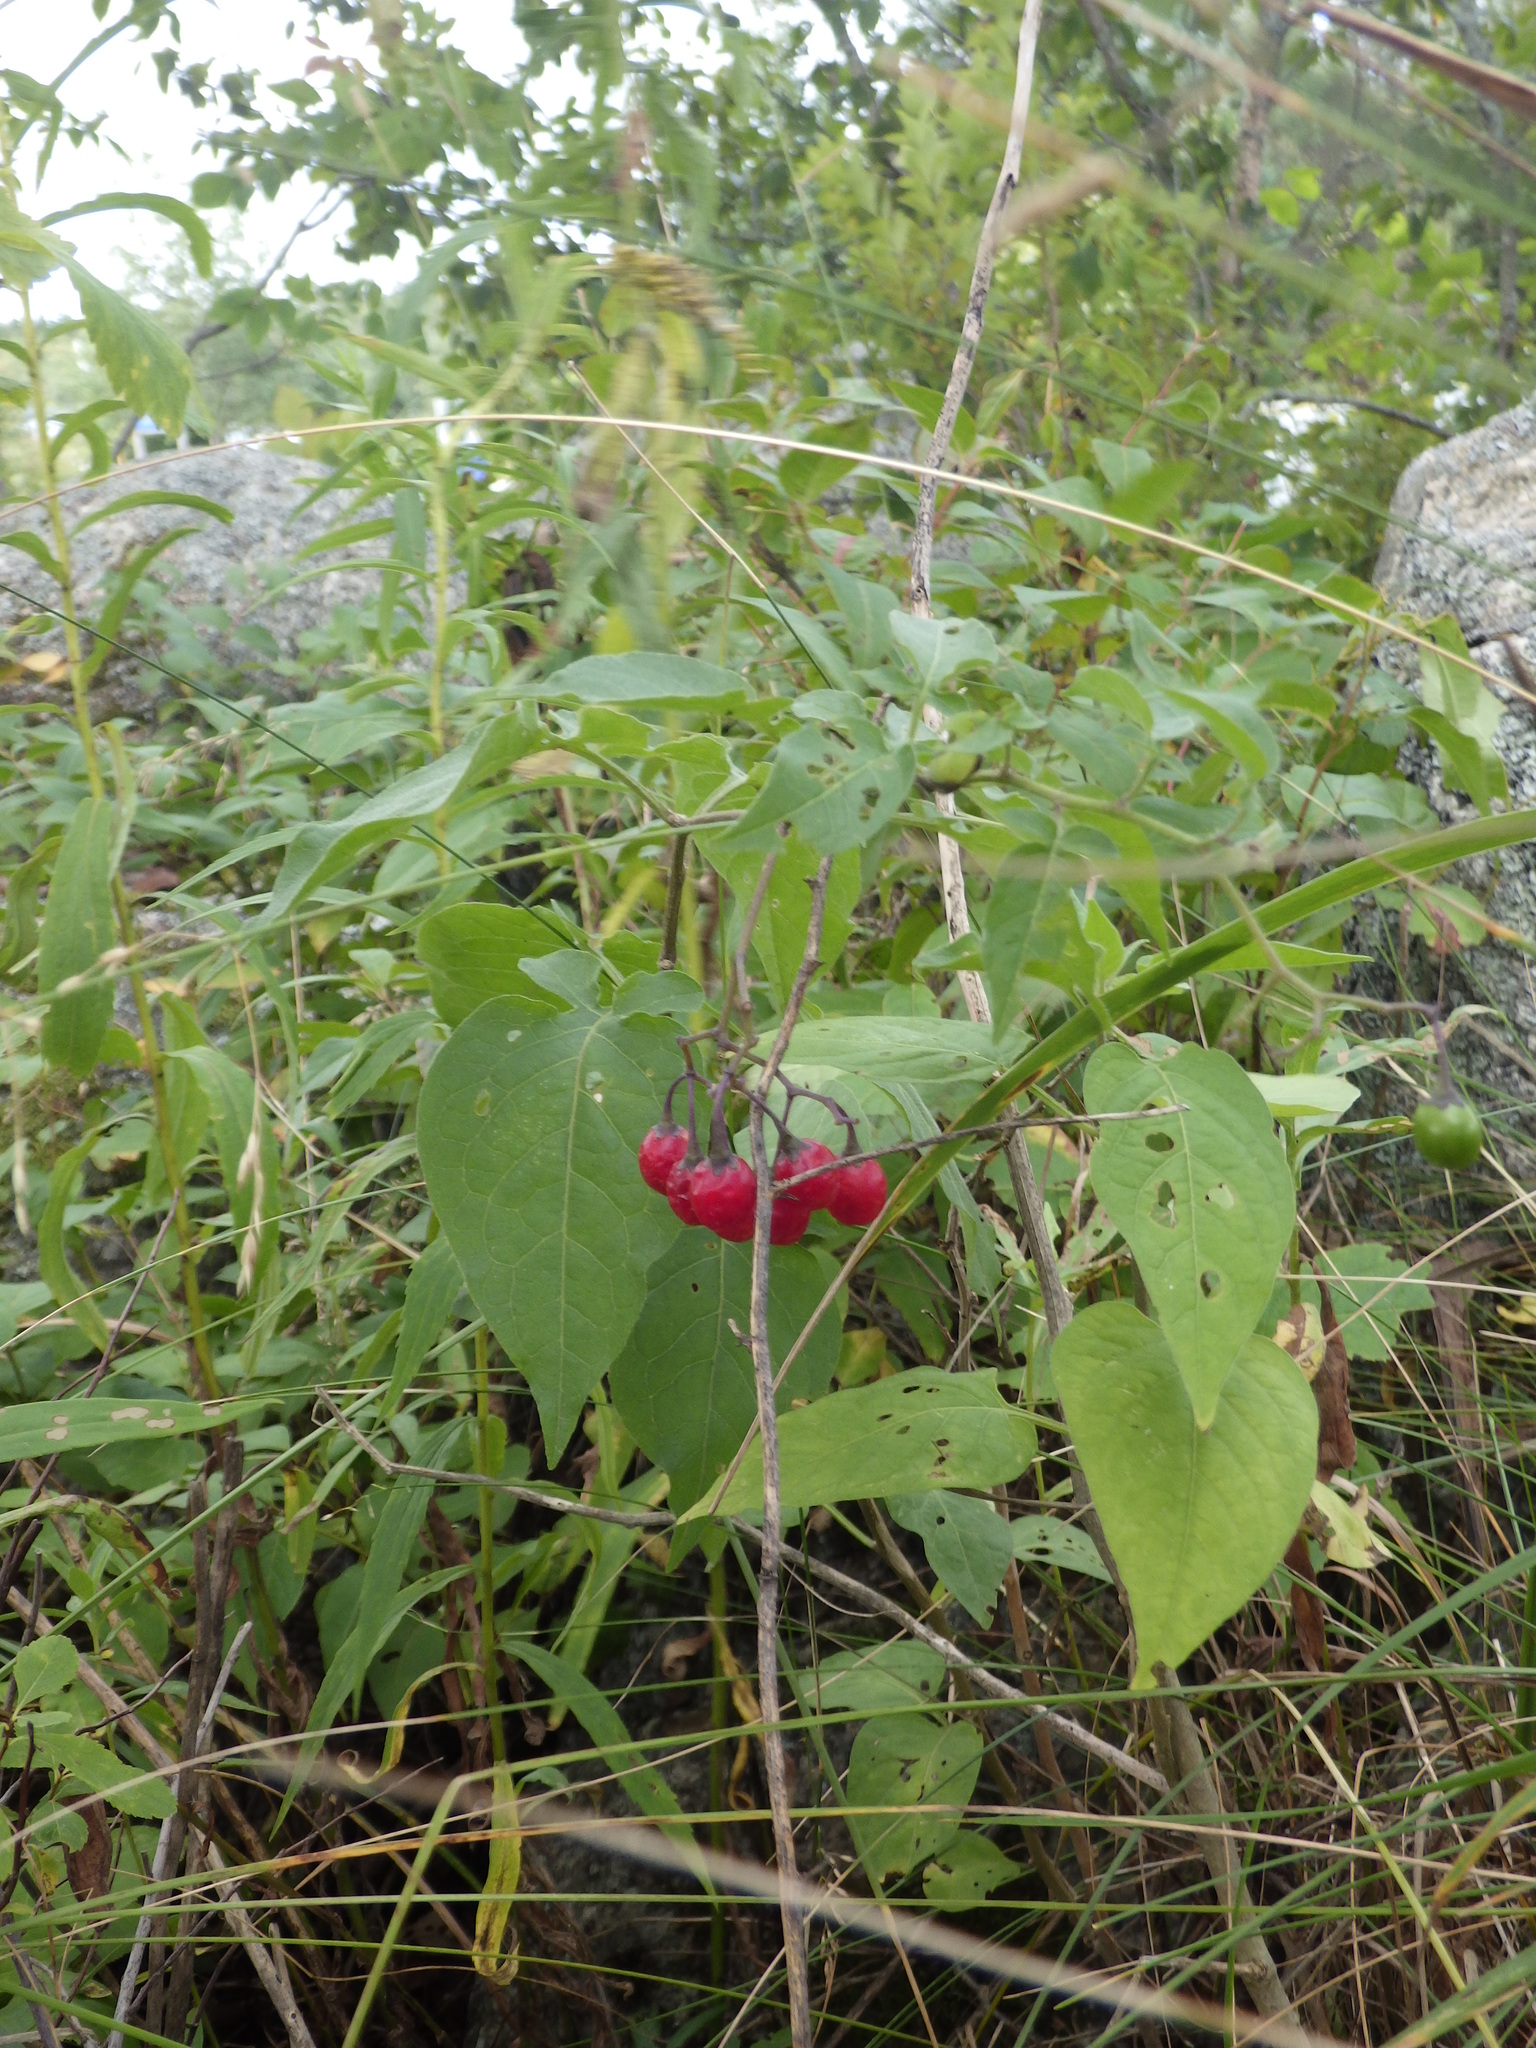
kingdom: Plantae
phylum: Tracheophyta
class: Magnoliopsida
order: Solanales
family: Solanaceae
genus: Solanum
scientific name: Solanum dulcamara
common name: Climbing nightshade
